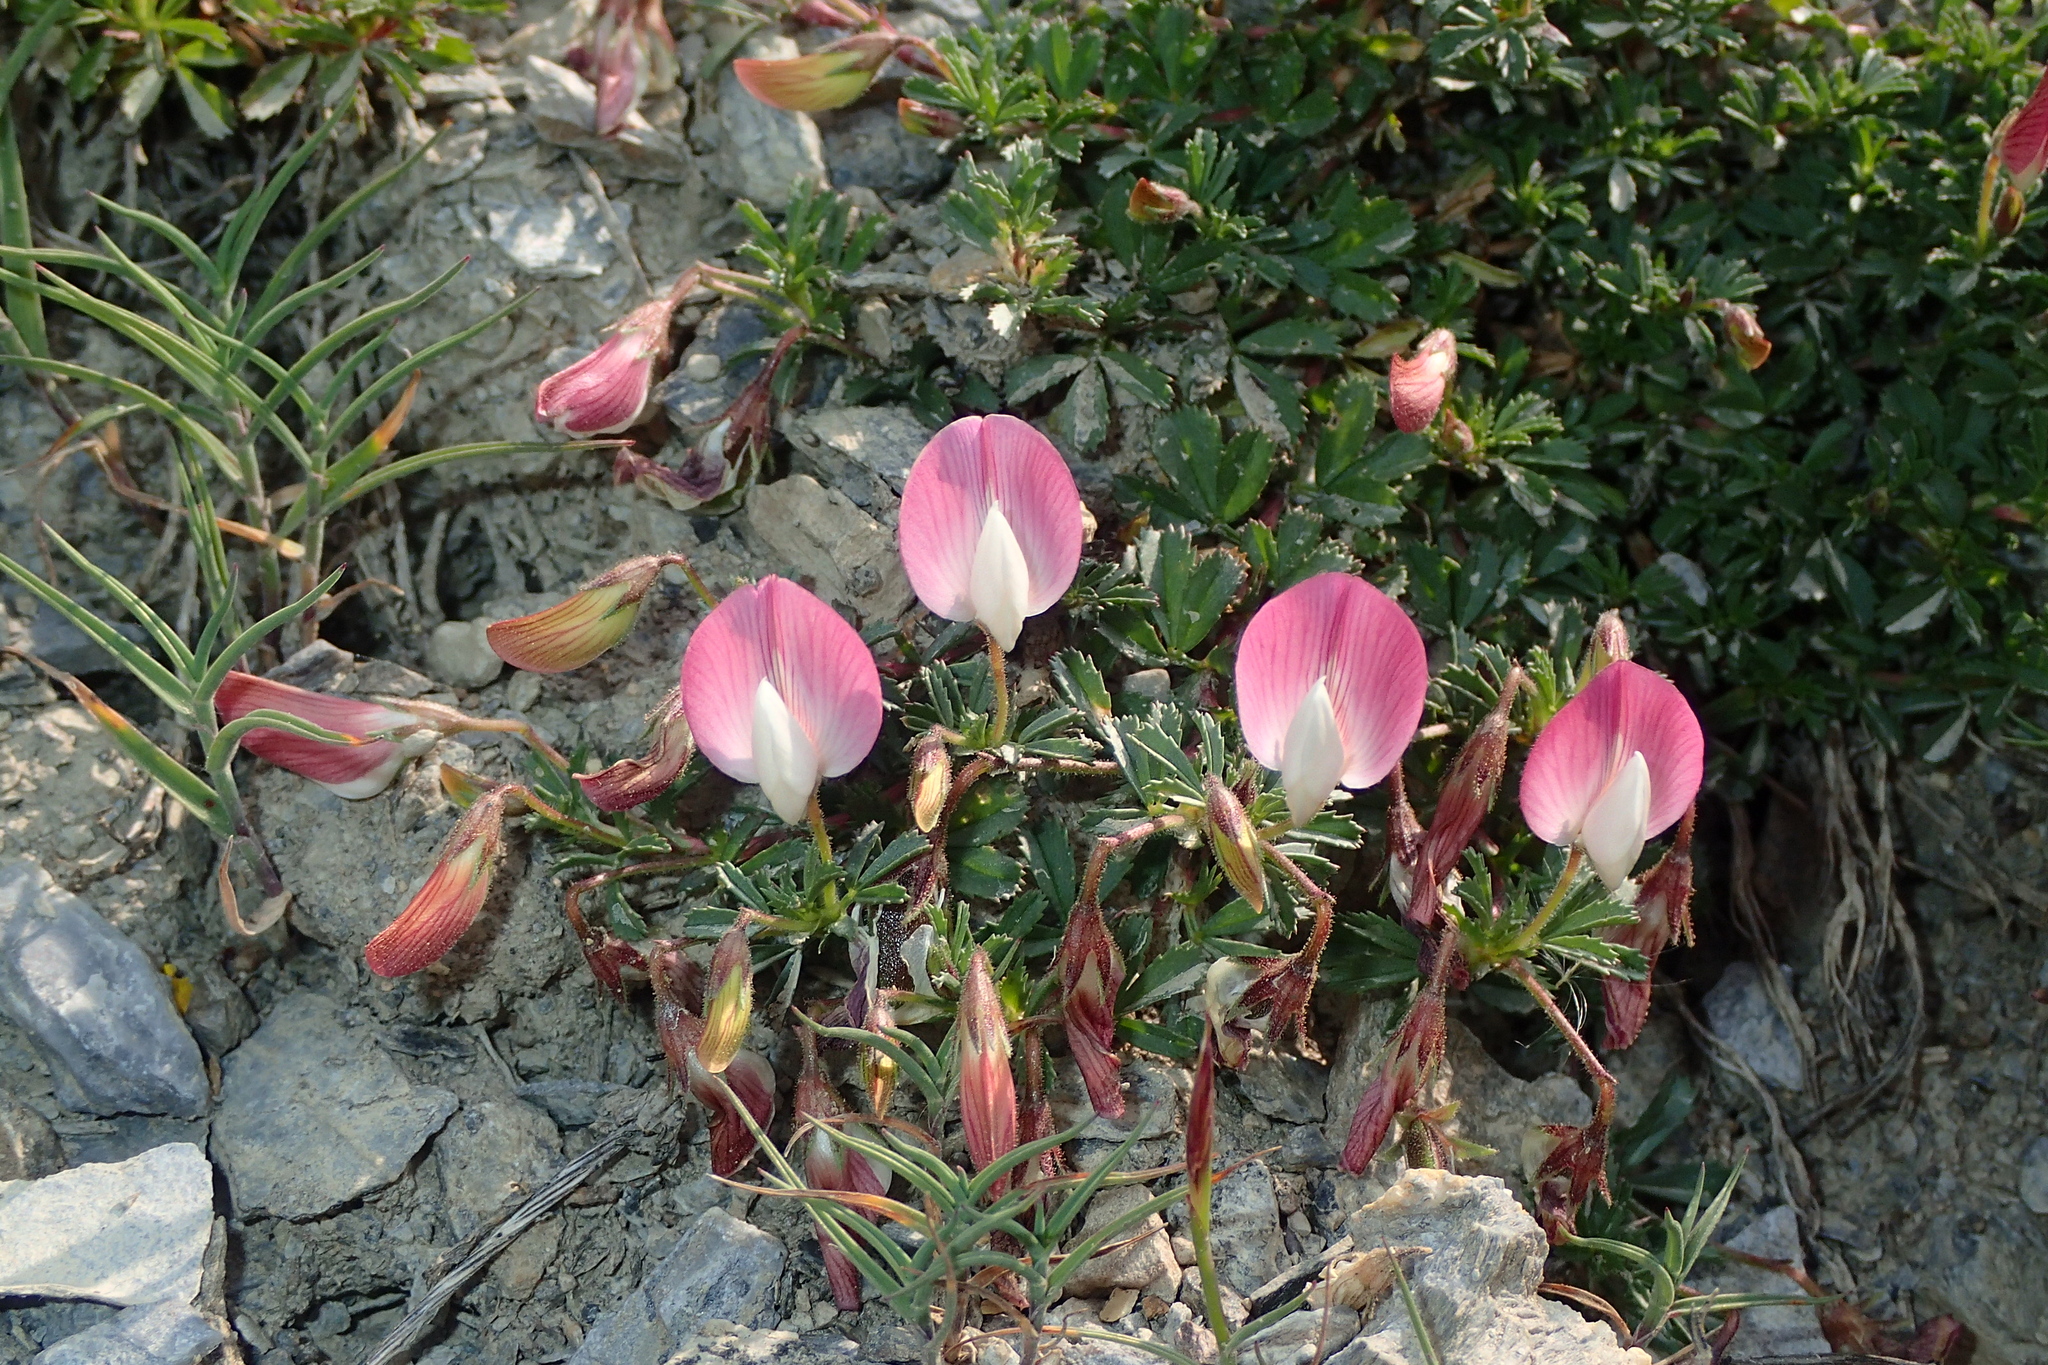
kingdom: Plantae
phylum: Tracheophyta
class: Magnoliopsida
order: Fabales
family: Fabaceae
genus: Ononis
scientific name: Ononis cristata
